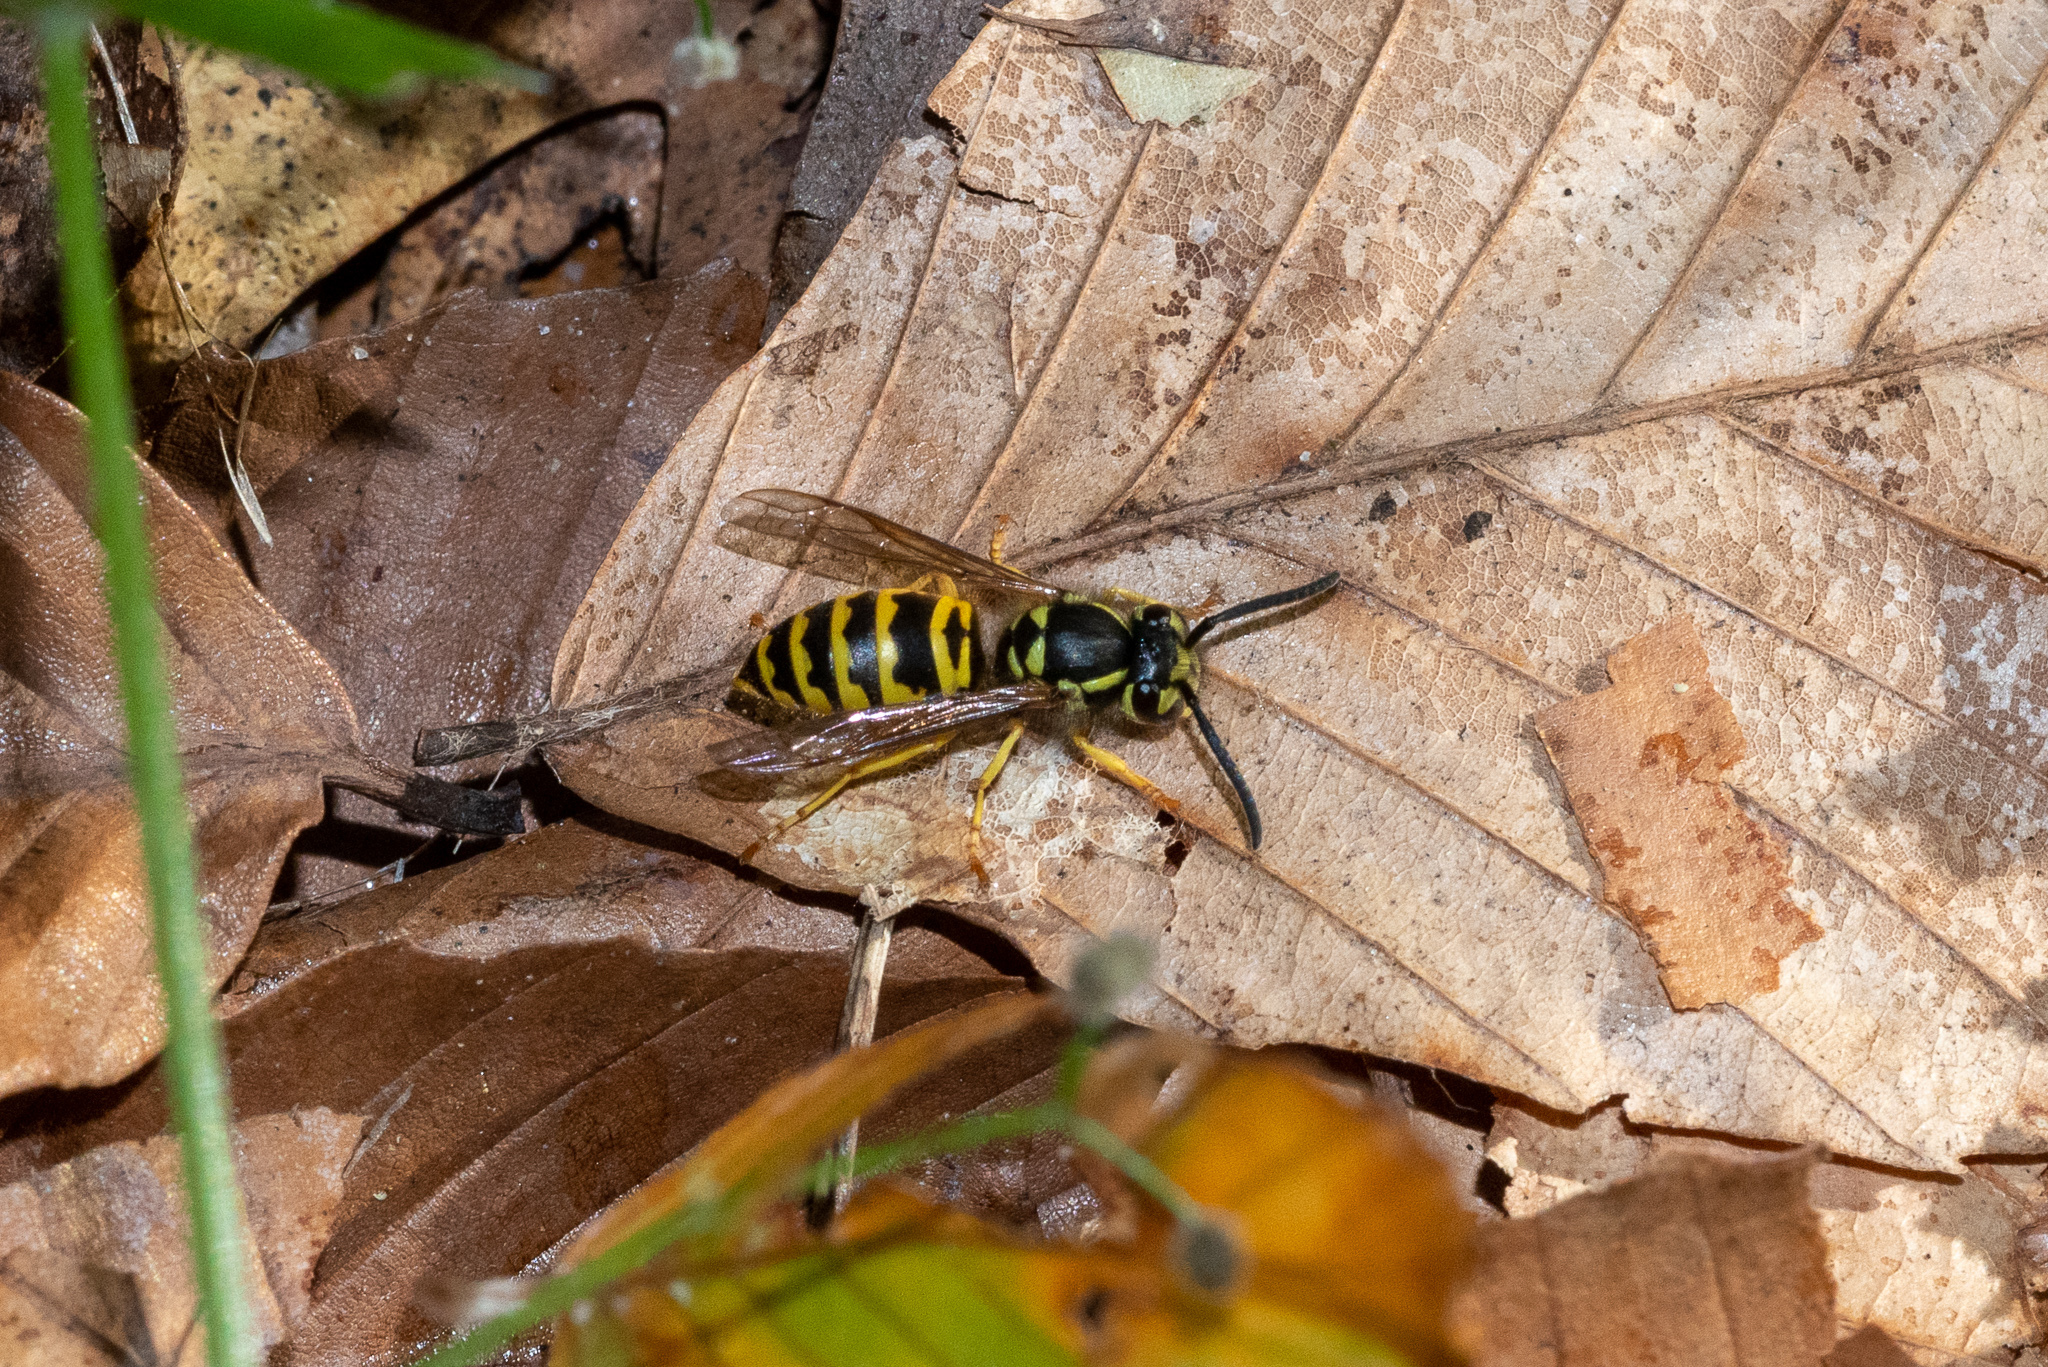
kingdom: Animalia
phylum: Arthropoda
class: Insecta
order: Hymenoptera
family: Vespidae
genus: Vespula
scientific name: Vespula maculifrons
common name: Eastern yellowjacket
